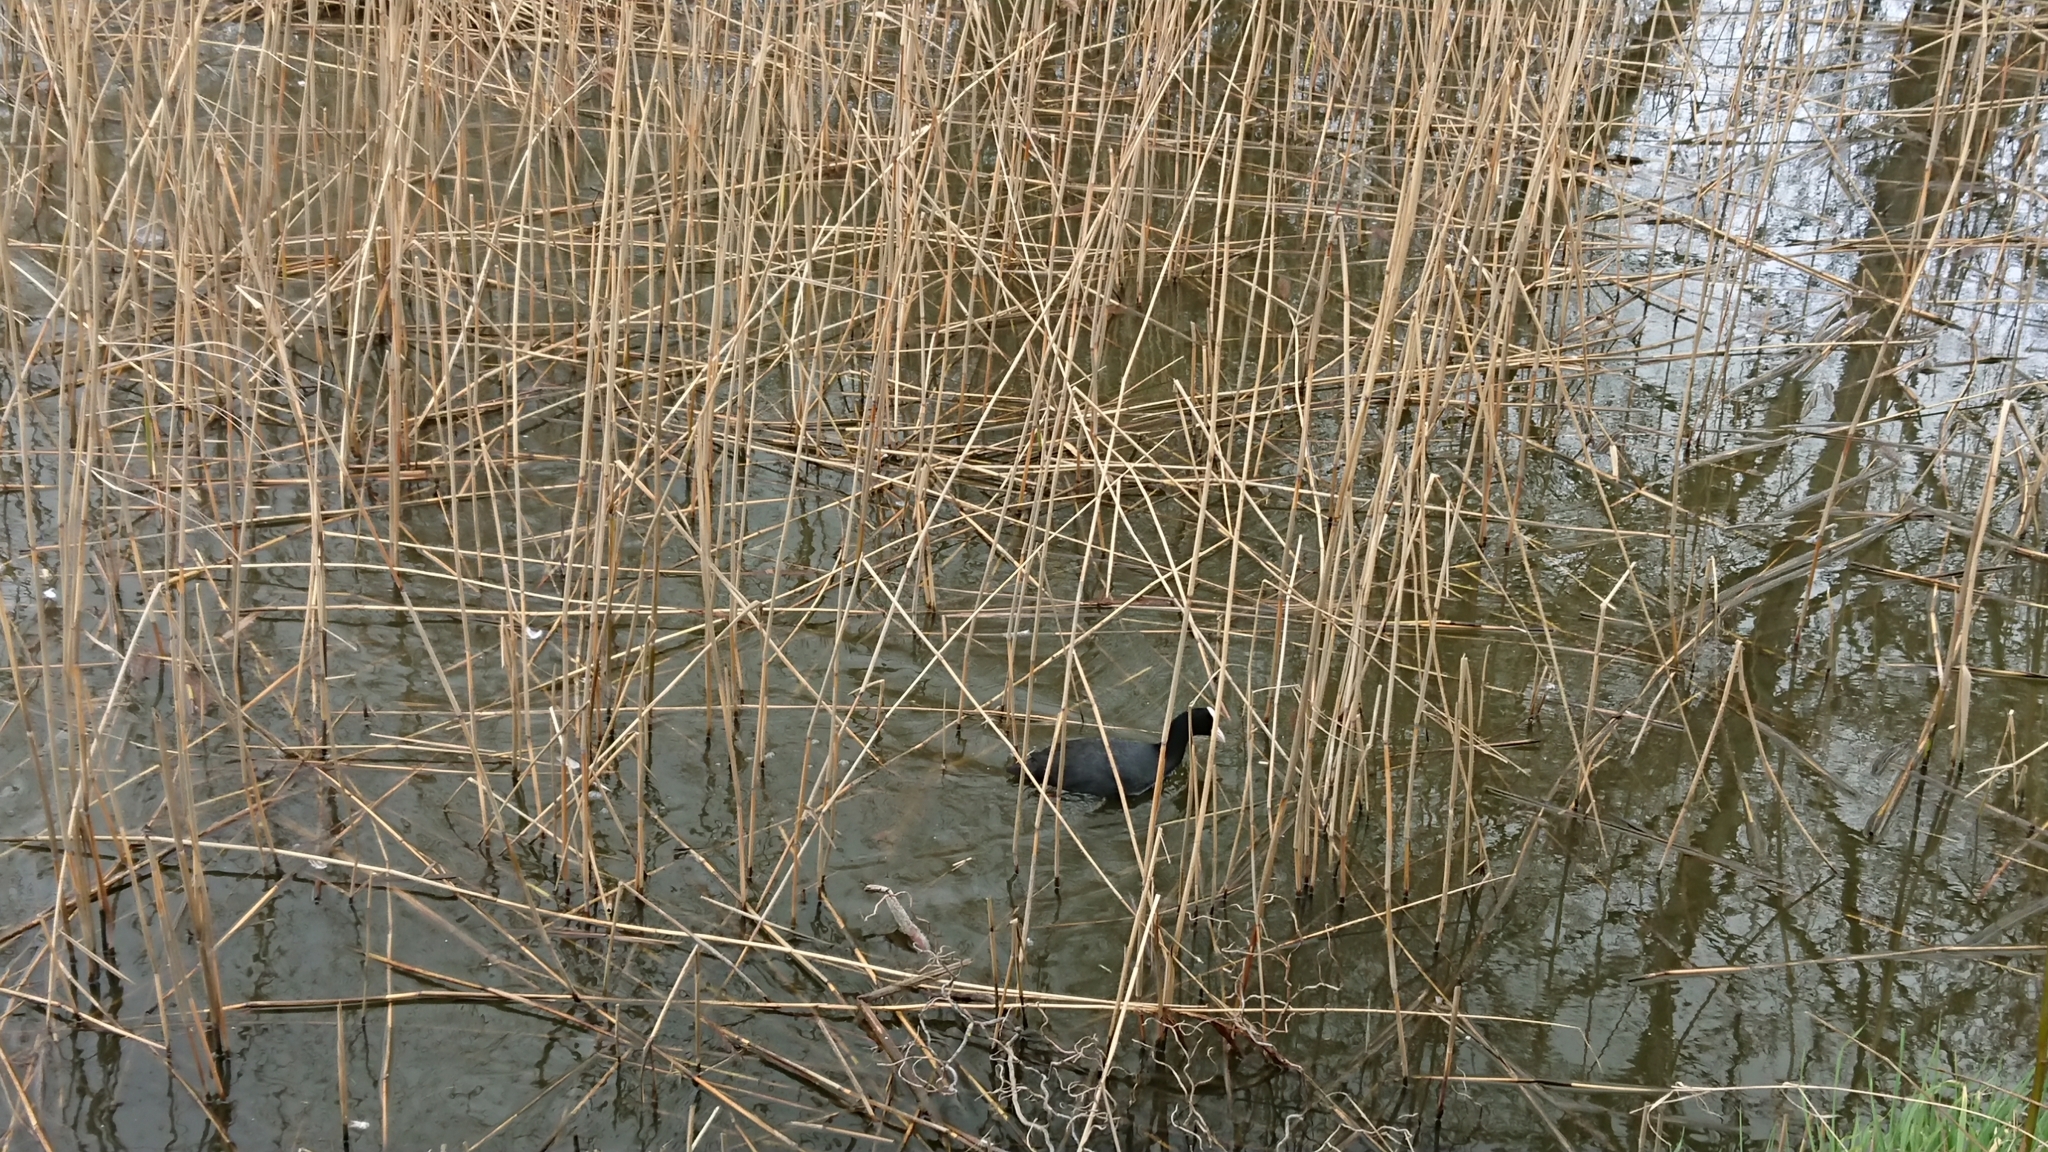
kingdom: Animalia
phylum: Chordata
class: Aves
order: Gruiformes
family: Rallidae
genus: Fulica
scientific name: Fulica atra
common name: Eurasian coot
